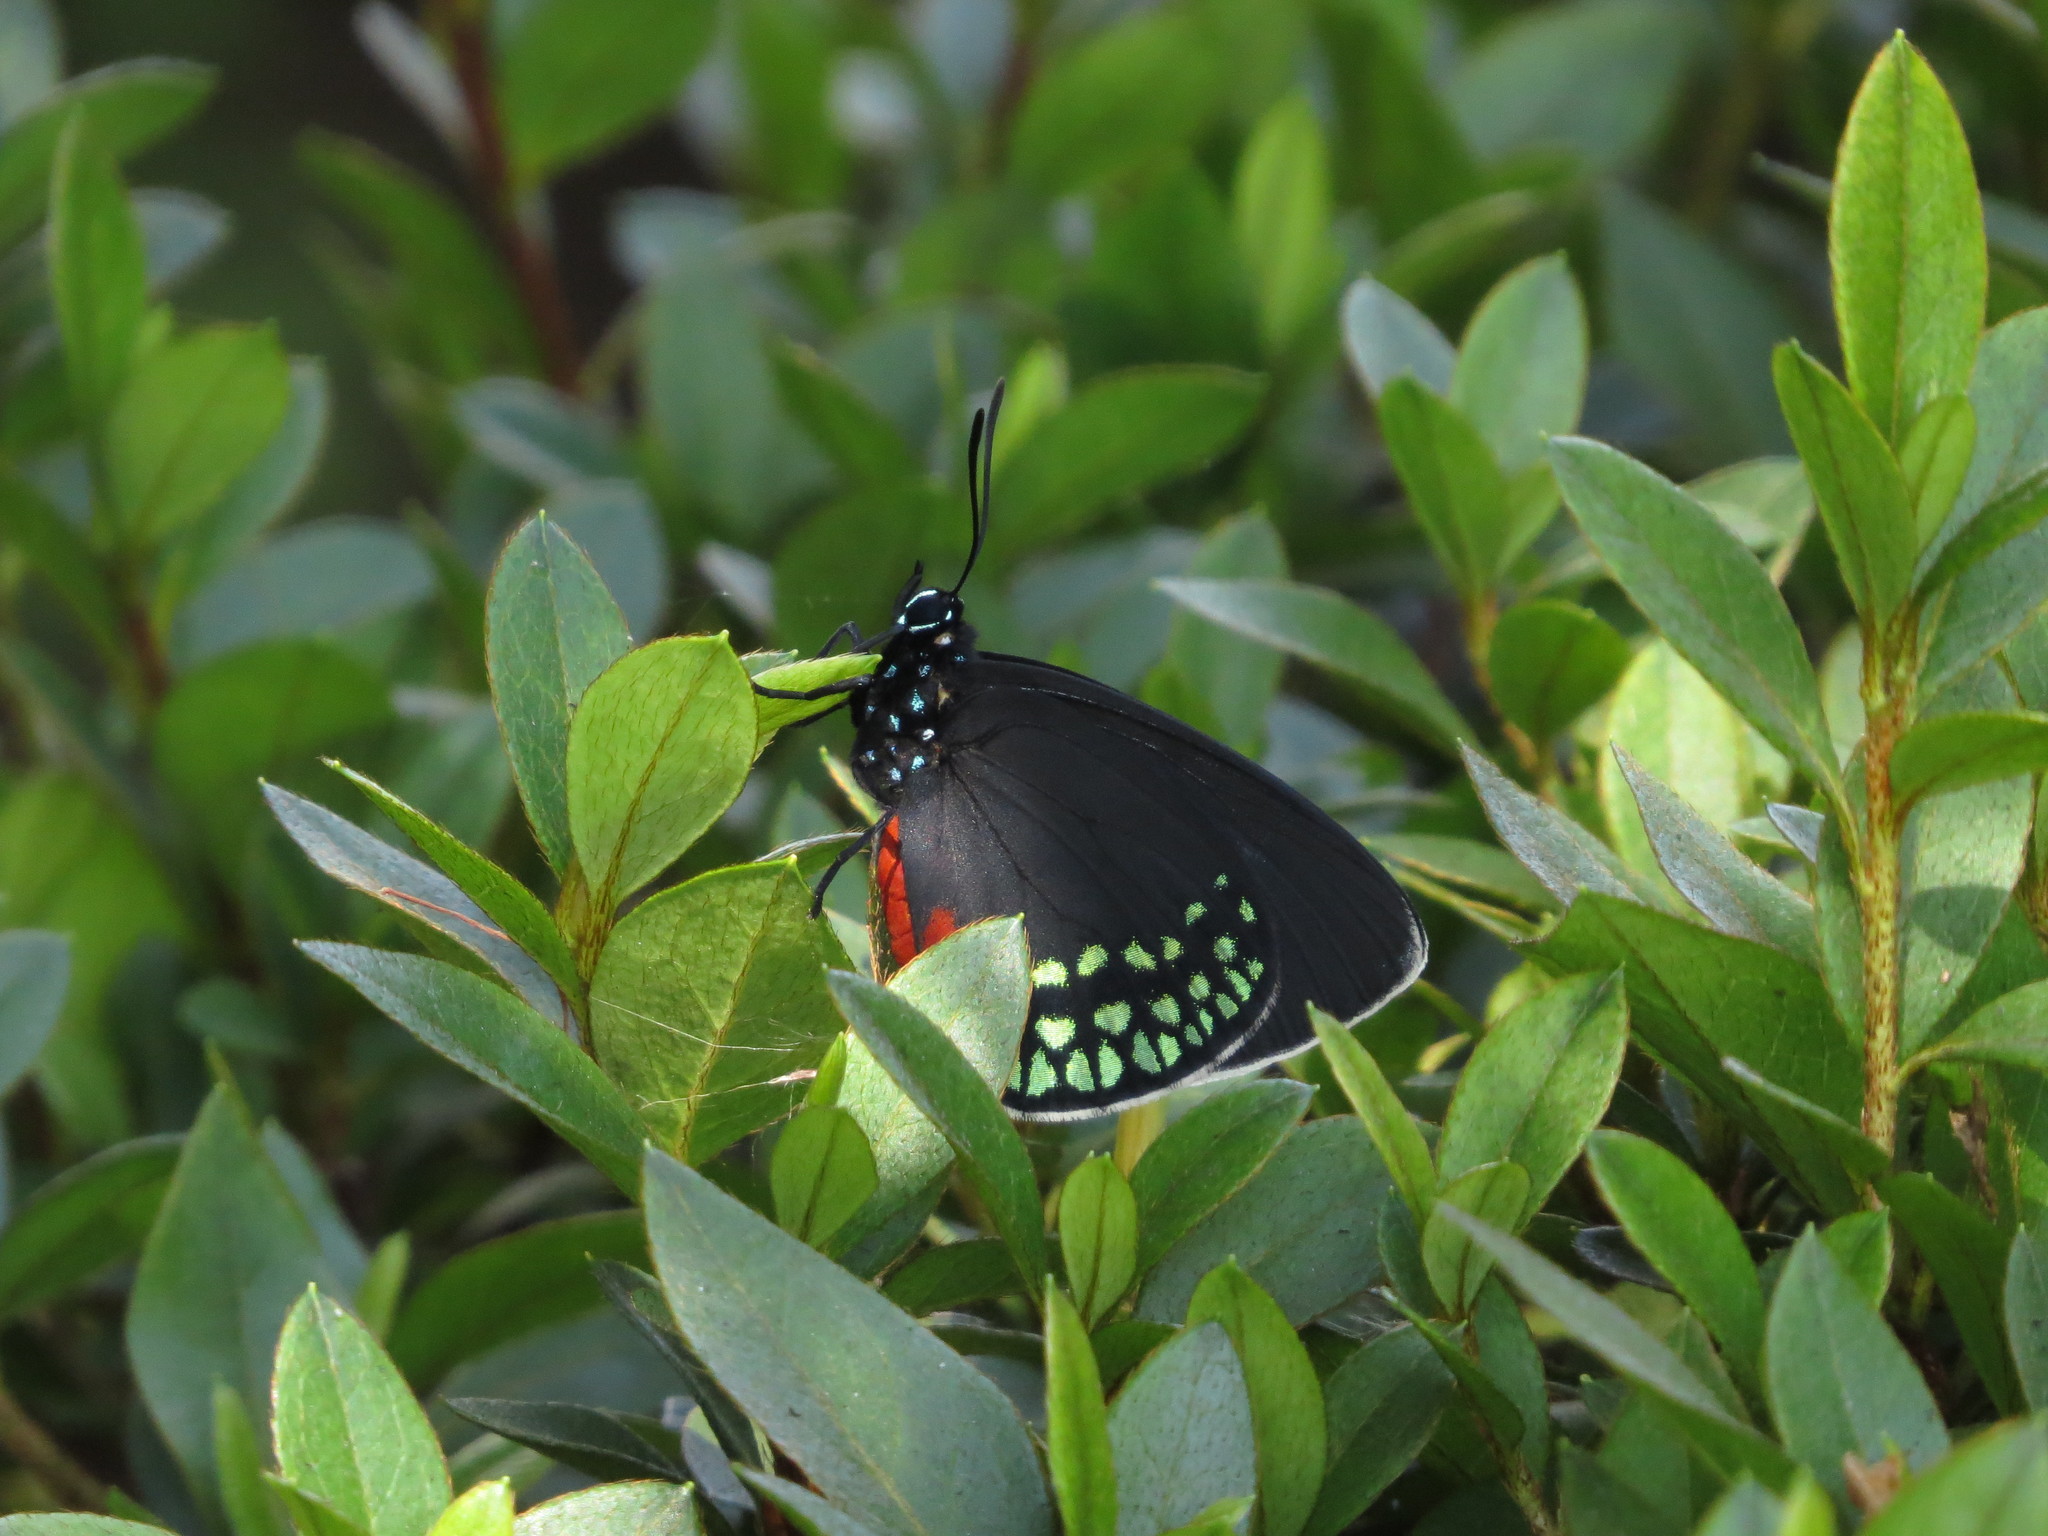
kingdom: Animalia
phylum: Arthropoda
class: Insecta
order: Lepidoptera
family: Lycaenidae
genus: Eumaeus
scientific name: Eumaeus toxea
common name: Mexican cycadian
